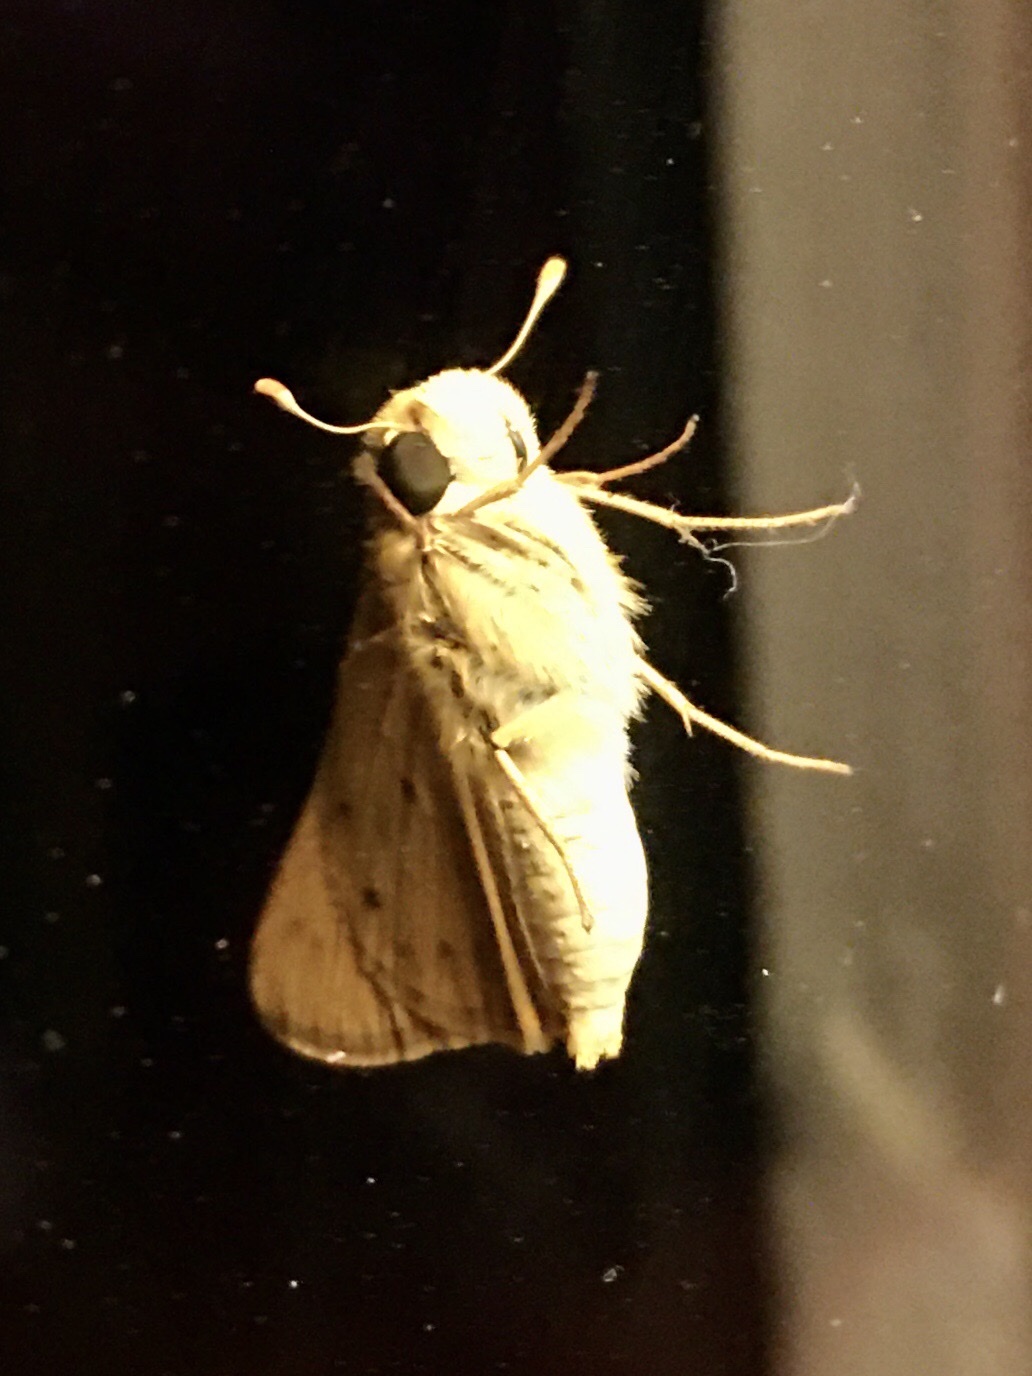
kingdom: Animalia
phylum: Arthropoda
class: Insecta
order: Lepidoptera
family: Hesperiidae
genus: Hylephila
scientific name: Hylephila phyleus
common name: Fiery skipper
